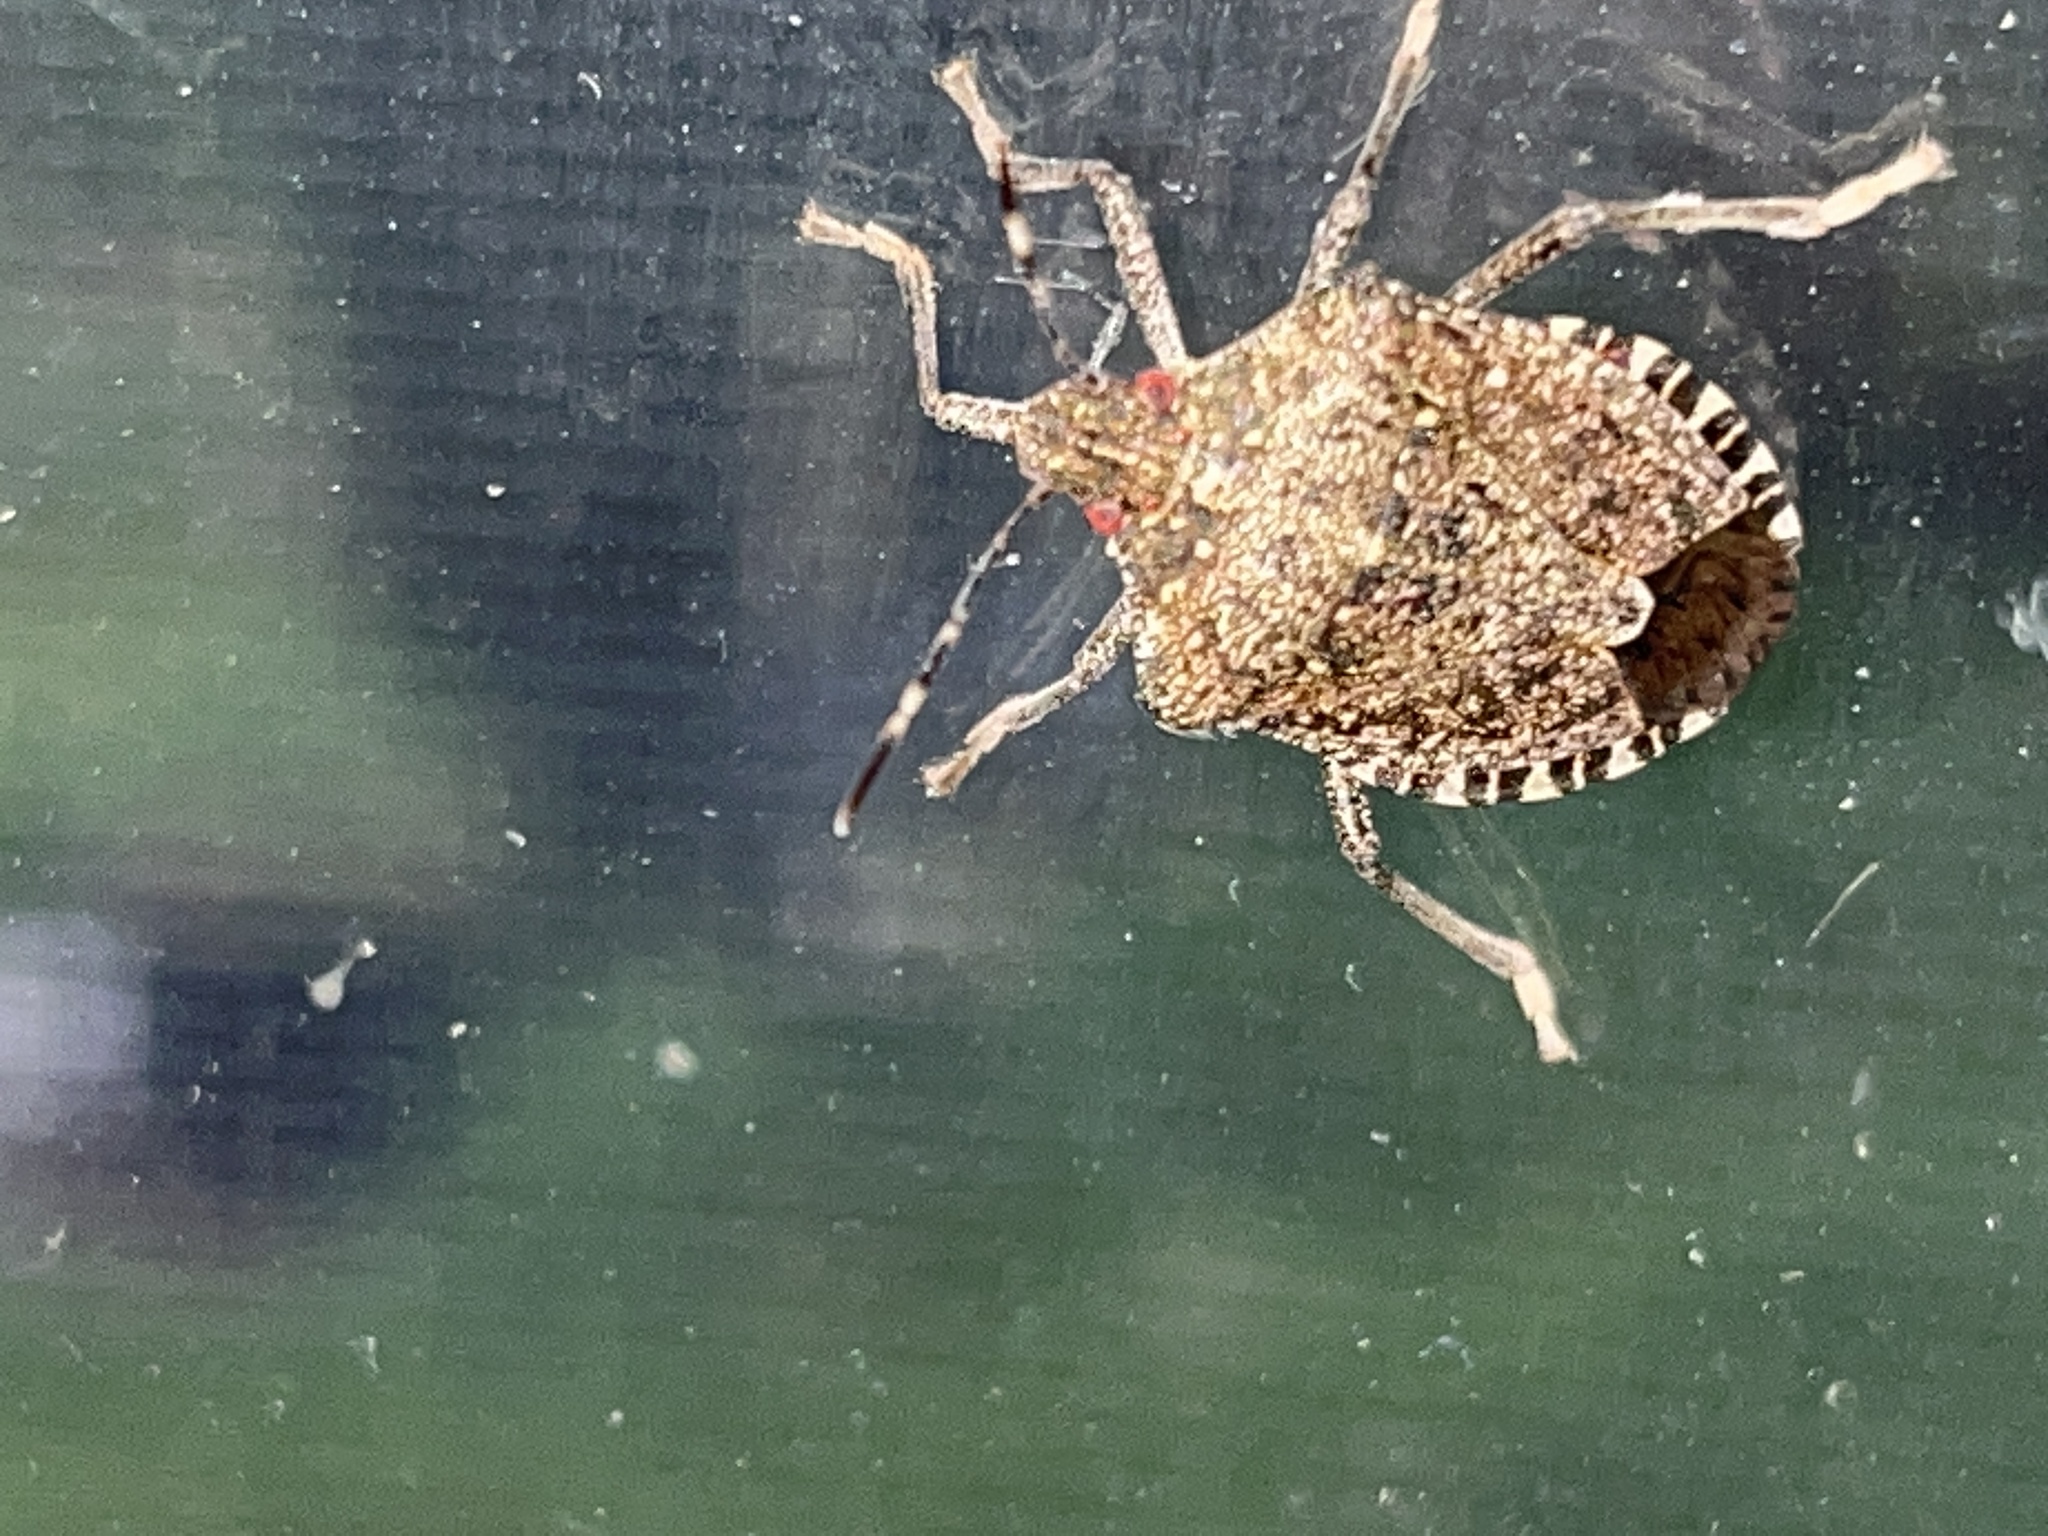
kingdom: Animalia
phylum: Arthropoda
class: Insecta
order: Hemiptera
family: Pentatomidae
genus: Halyomorpha
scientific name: Halyomorpha halys
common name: Brown marmorated stink bug
